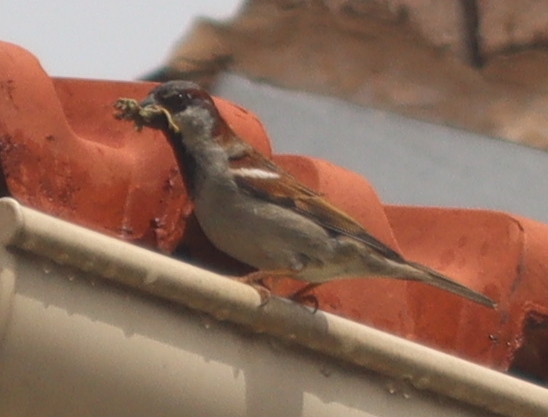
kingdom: Animalia
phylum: Chordata
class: Aves
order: Passeriformes
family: Passeridae
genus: Passer
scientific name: Passer domesticus
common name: House sparrow
